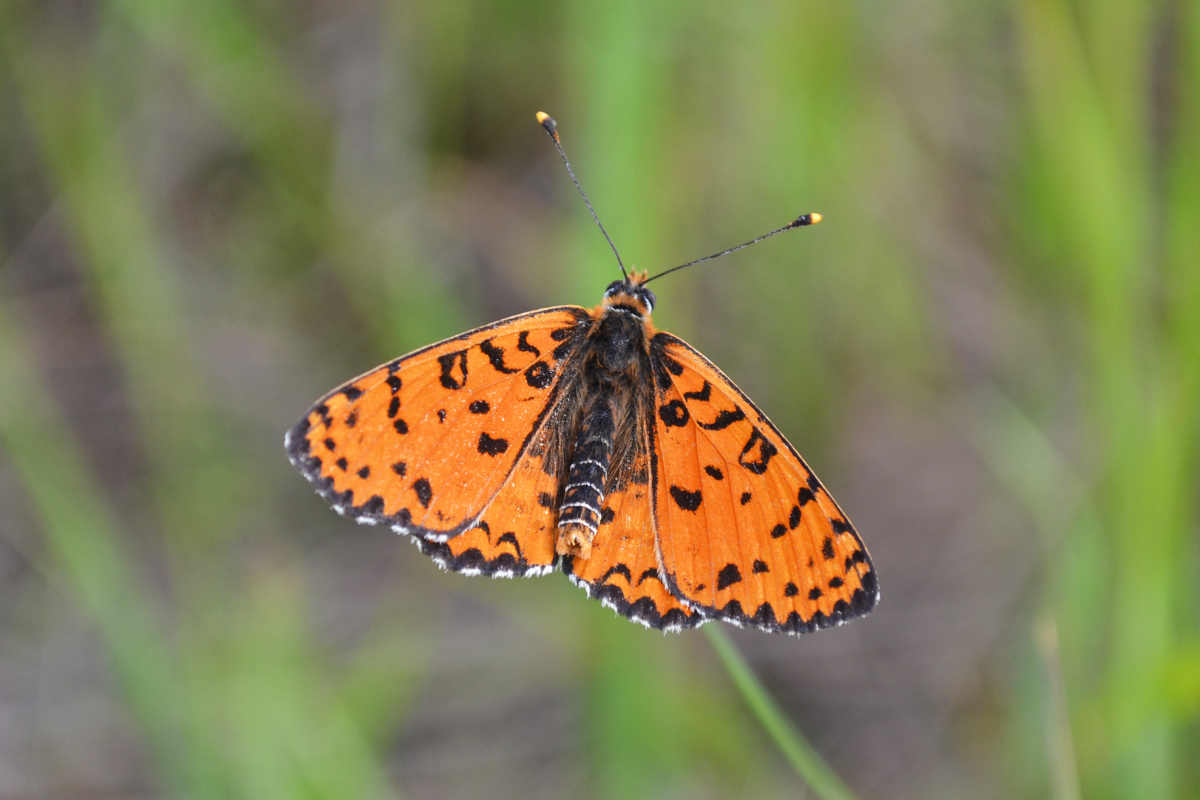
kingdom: Animalia
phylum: Arthropoda
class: Insecta
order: Lepidoptera
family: Nymphalidae
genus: Melitaea
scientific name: Melitaea didyma
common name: Spotted fritillary
